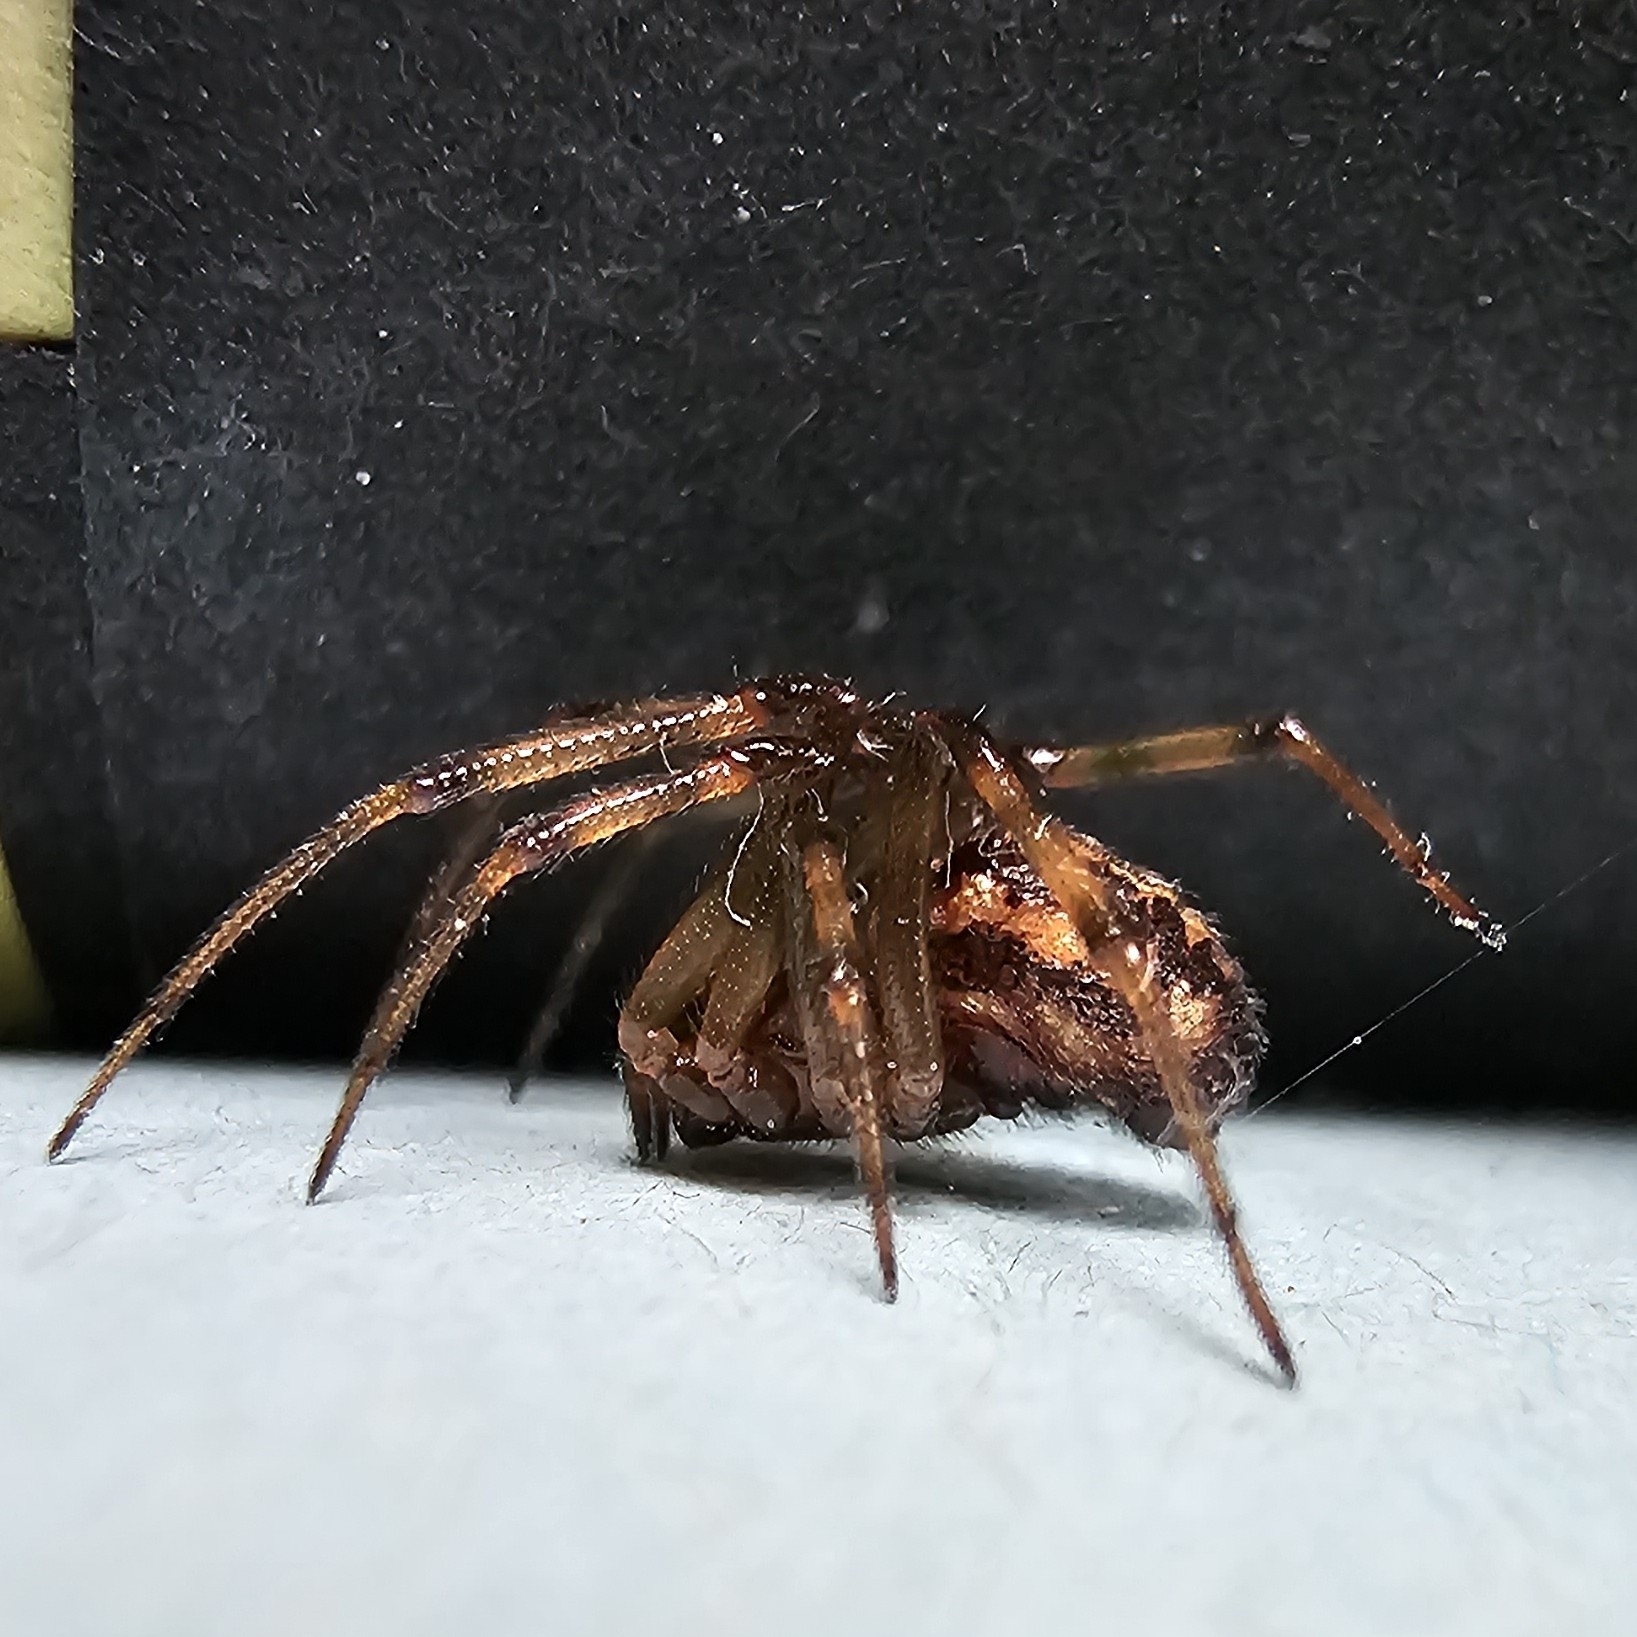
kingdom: Animalia
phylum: Arthropoda
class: Arachnida
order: Araneae
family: Theridiidae
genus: Steatoda
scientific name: Steatoda triangulosa
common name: Triangulate bud spider
